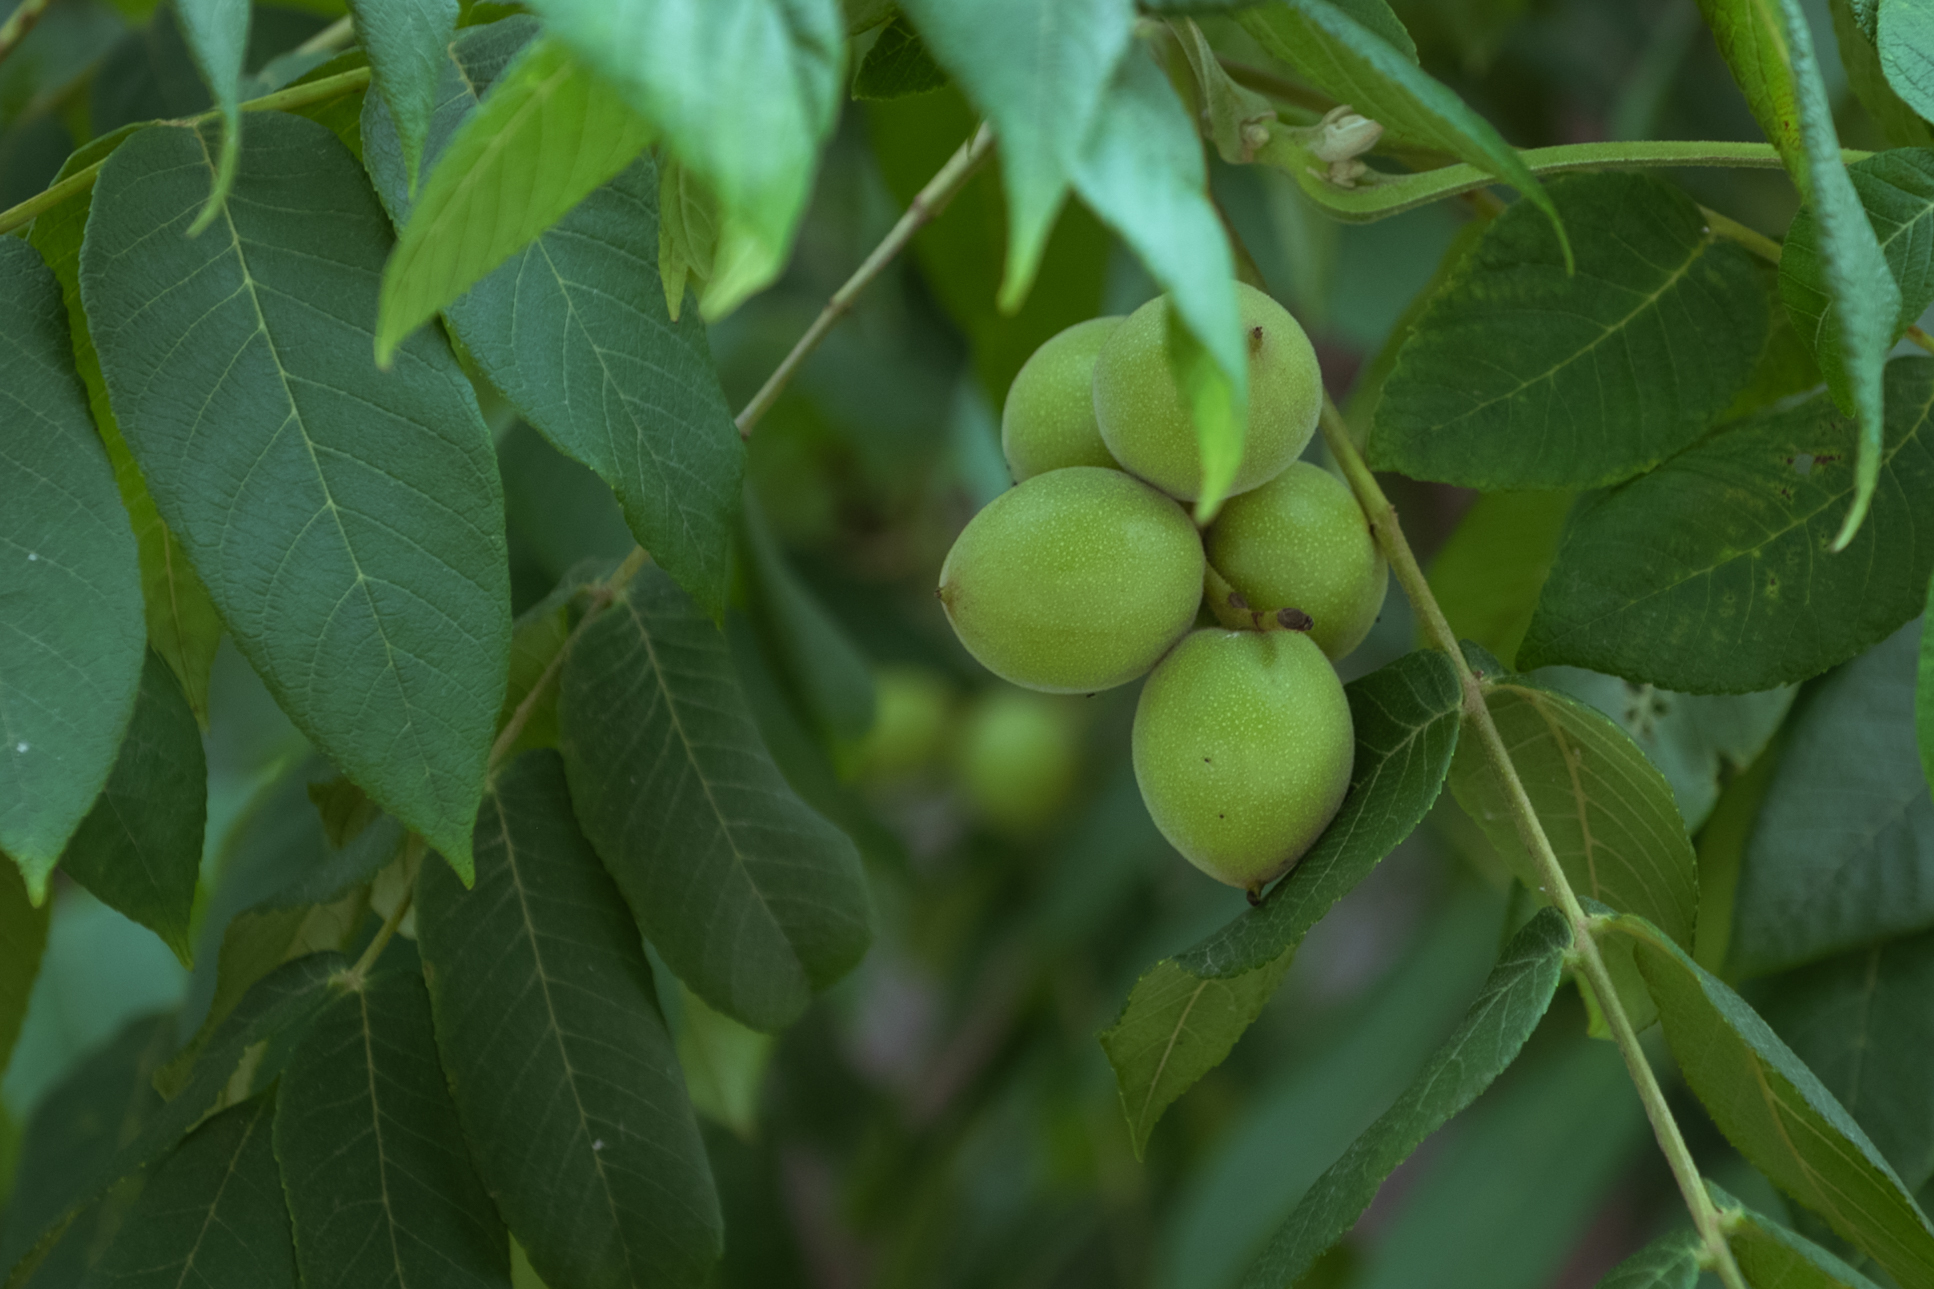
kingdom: Plantae
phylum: Tracheophyta
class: Magnoliopsida
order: Fagales
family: Juglandaceae
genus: Juglans
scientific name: Juglans regia
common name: Walnut
